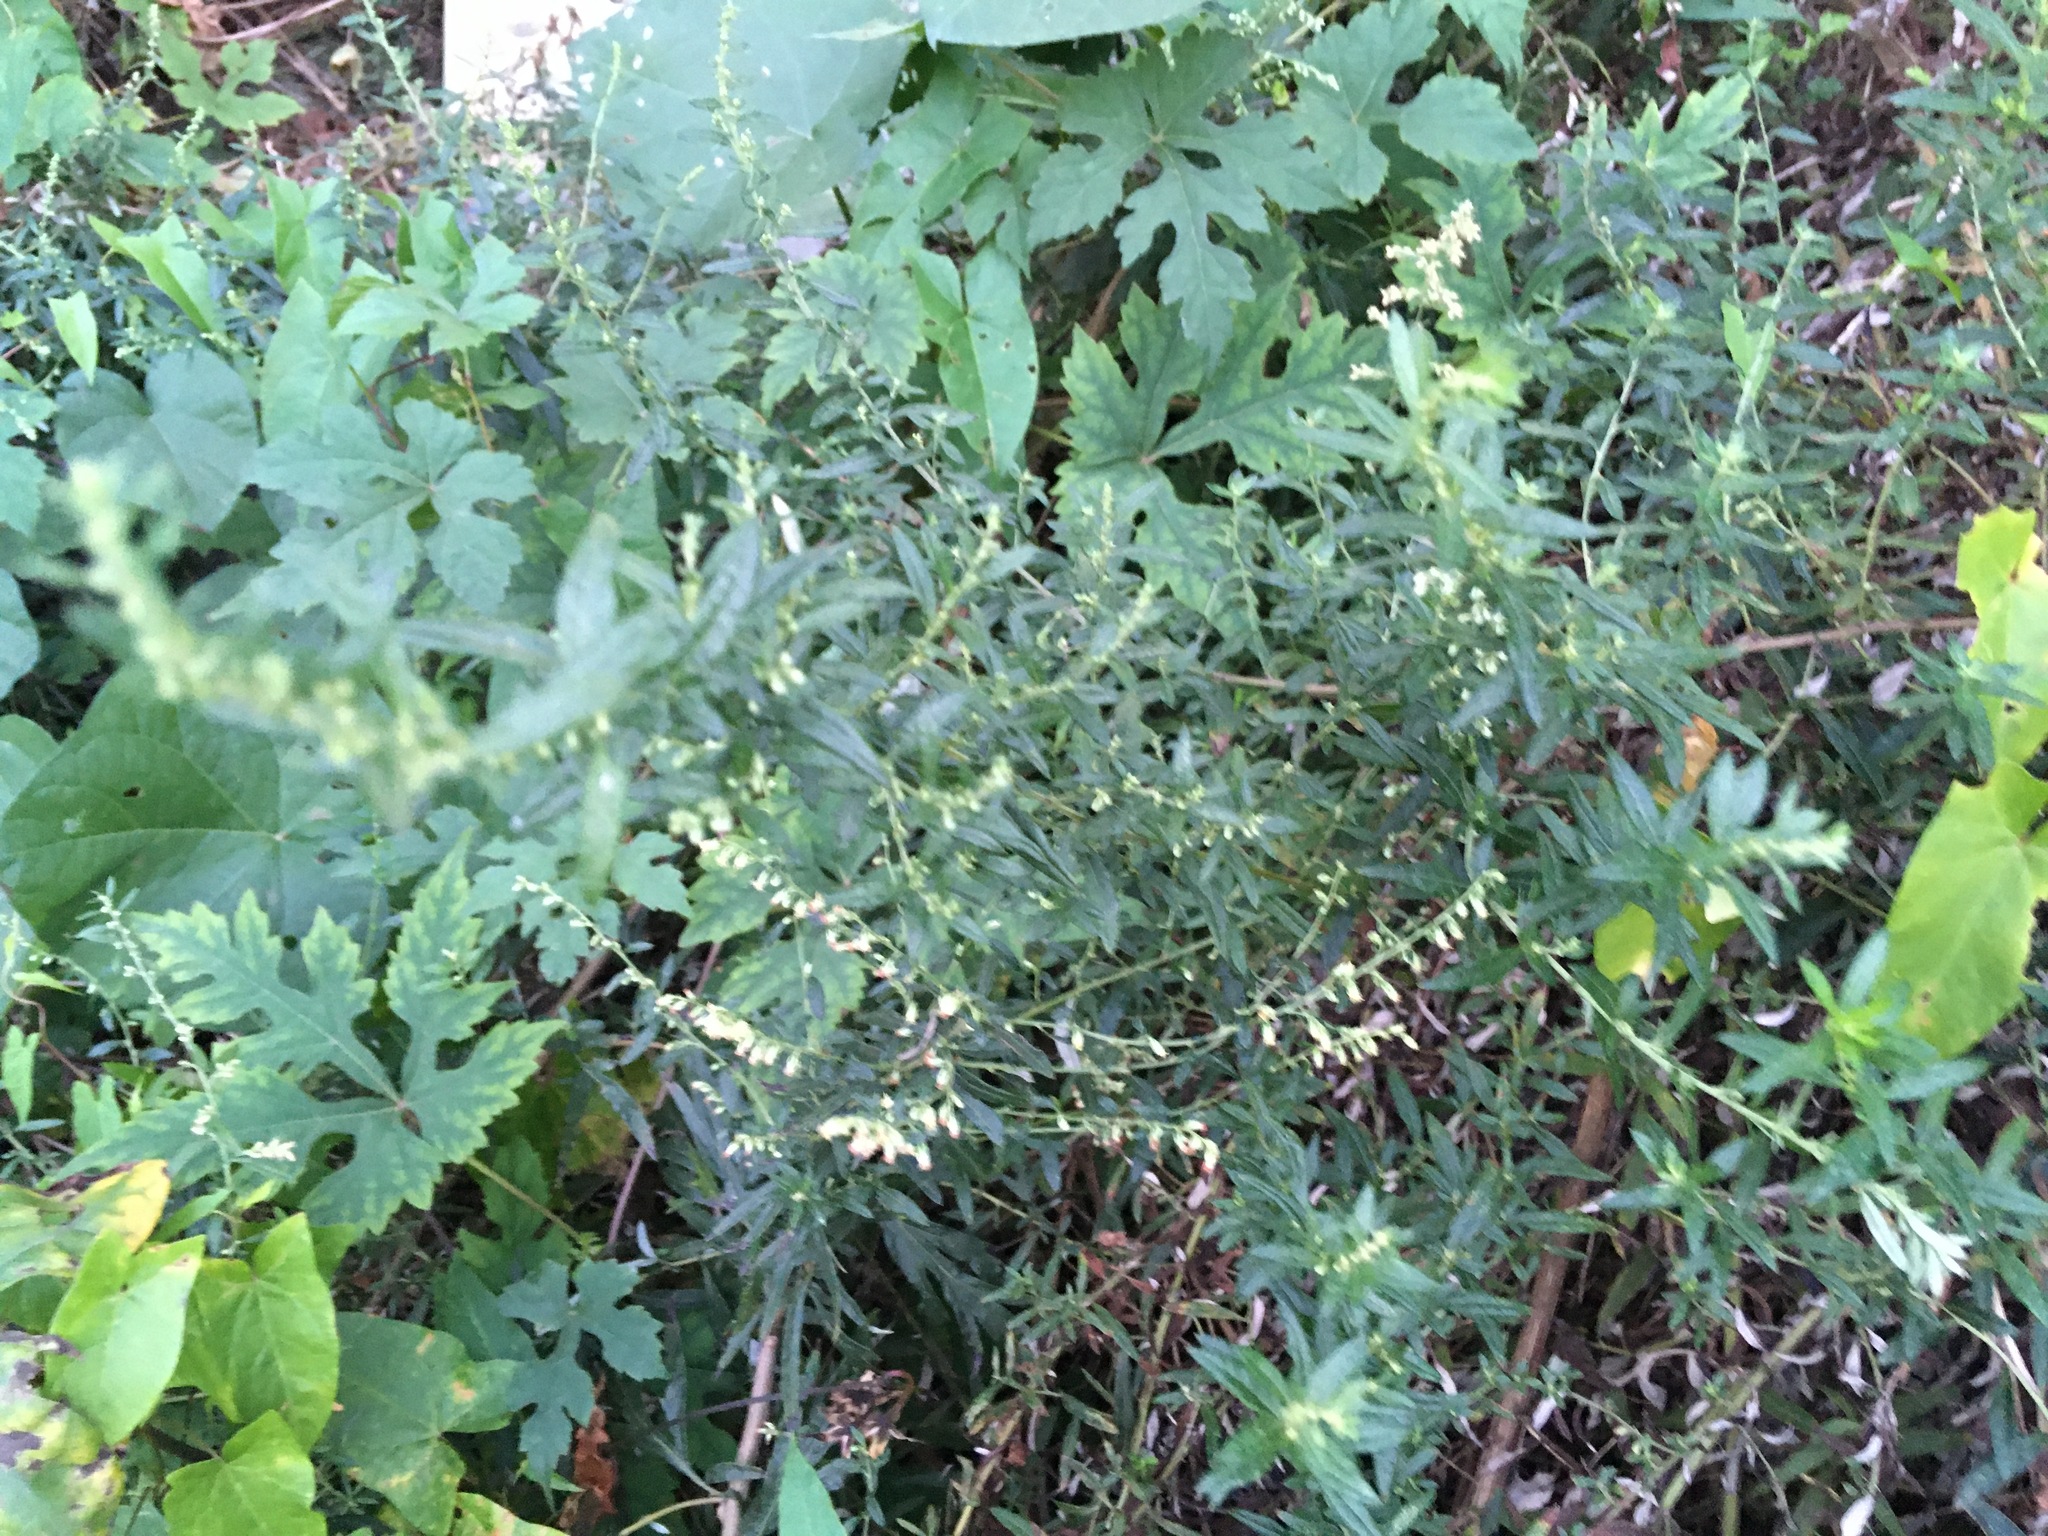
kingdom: Plantae
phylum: Tracheophyta
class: Magnoliopsida
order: Asterales
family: Asteraceae
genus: Artemisia
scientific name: Artemisia vulgaris
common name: Mugwort
